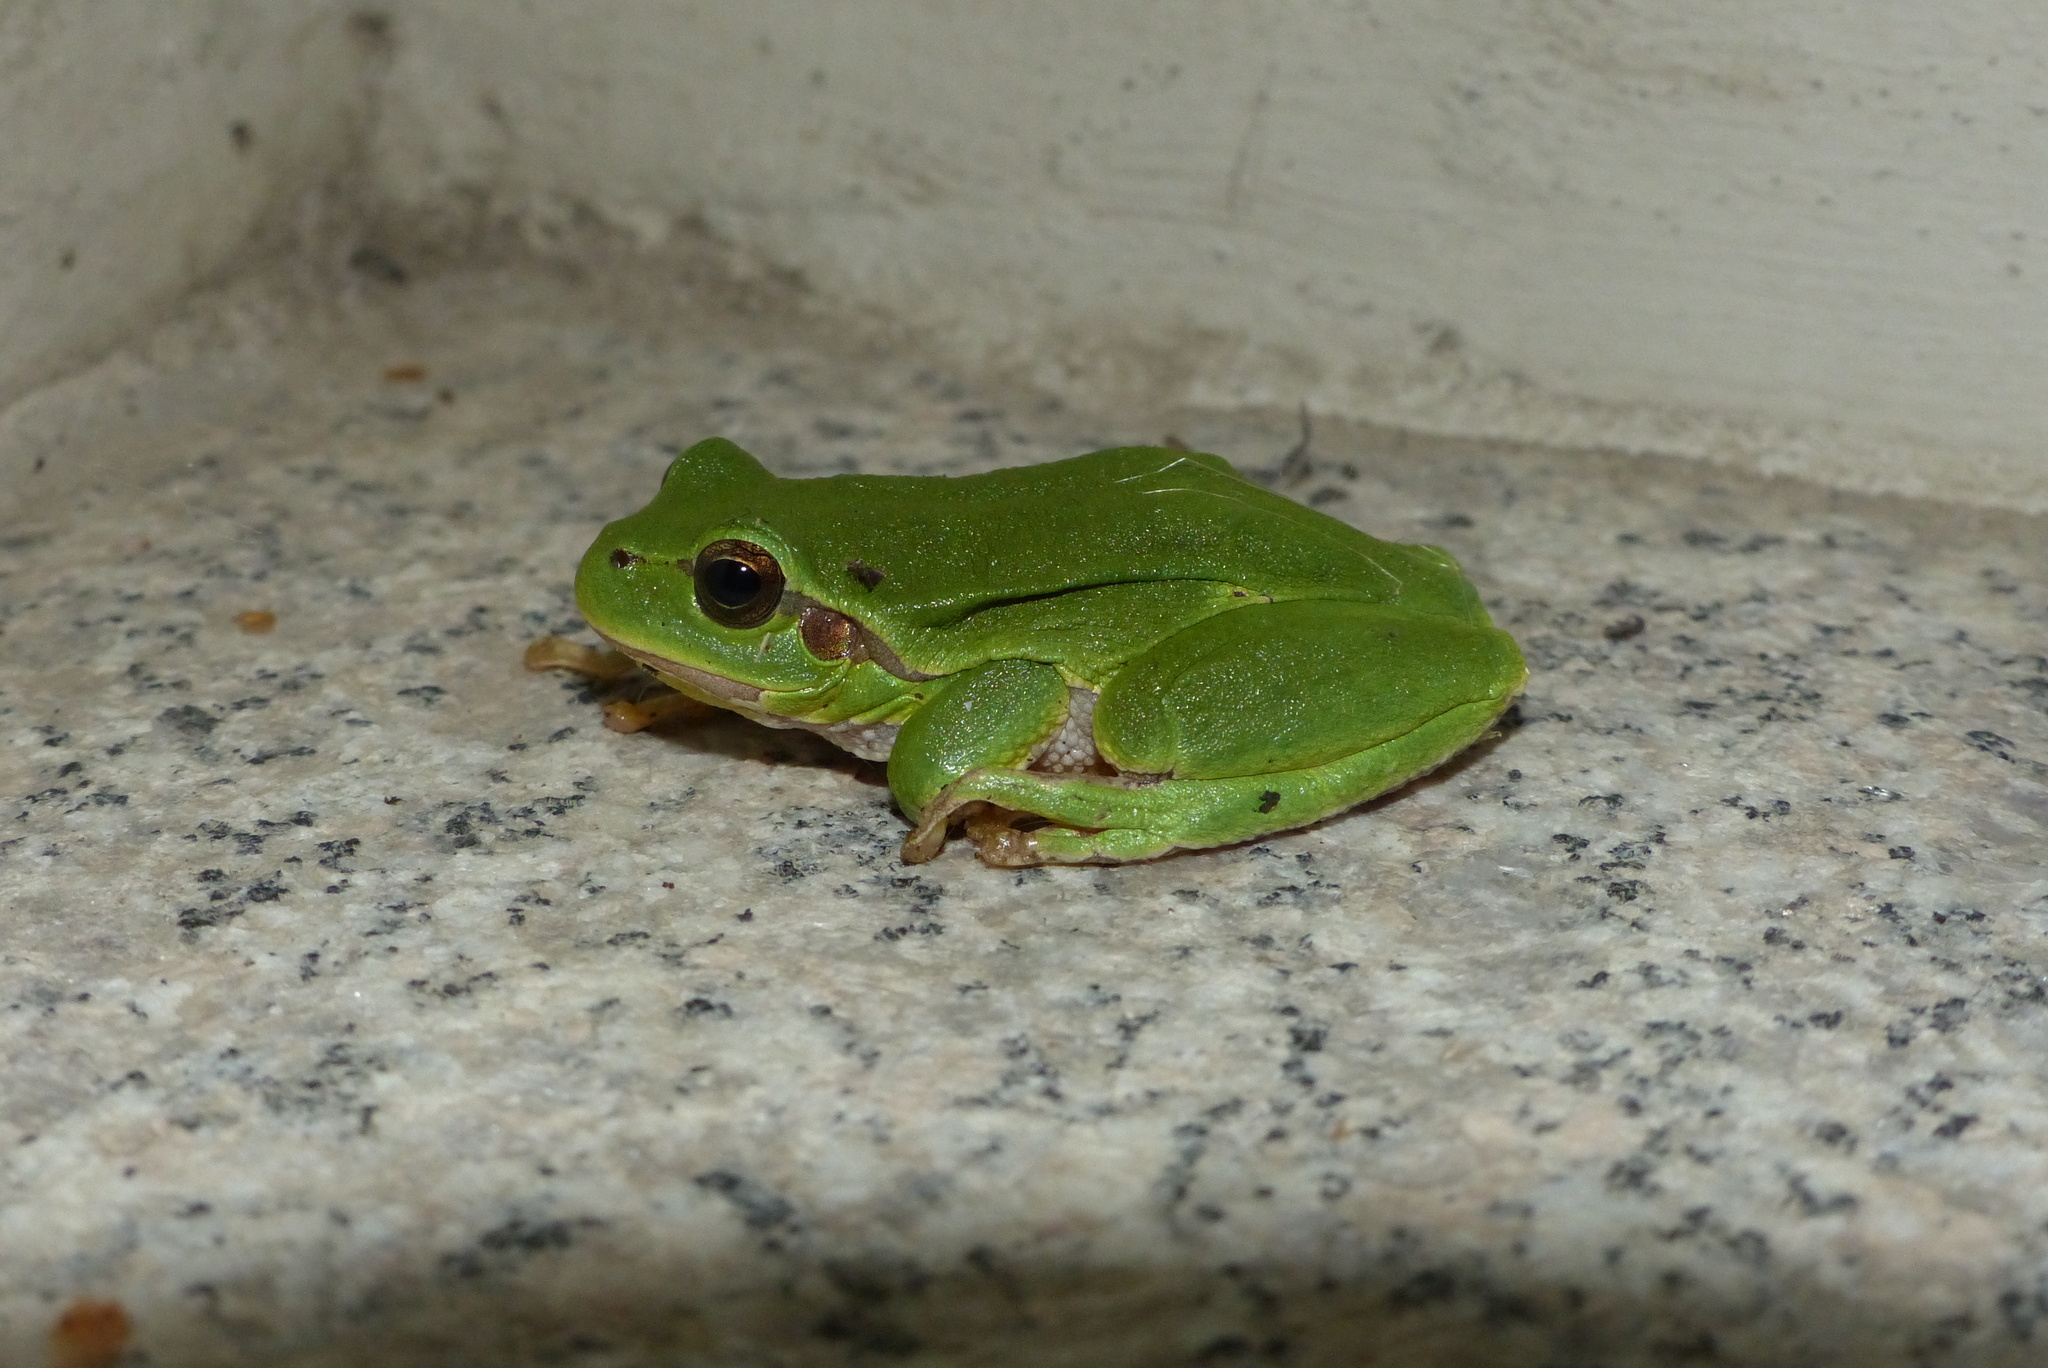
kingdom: Animalia
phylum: Chordata
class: Amphibia
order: Anura
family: Hylidae
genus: Hyla
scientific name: Hyla arborea
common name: Common tree frog
